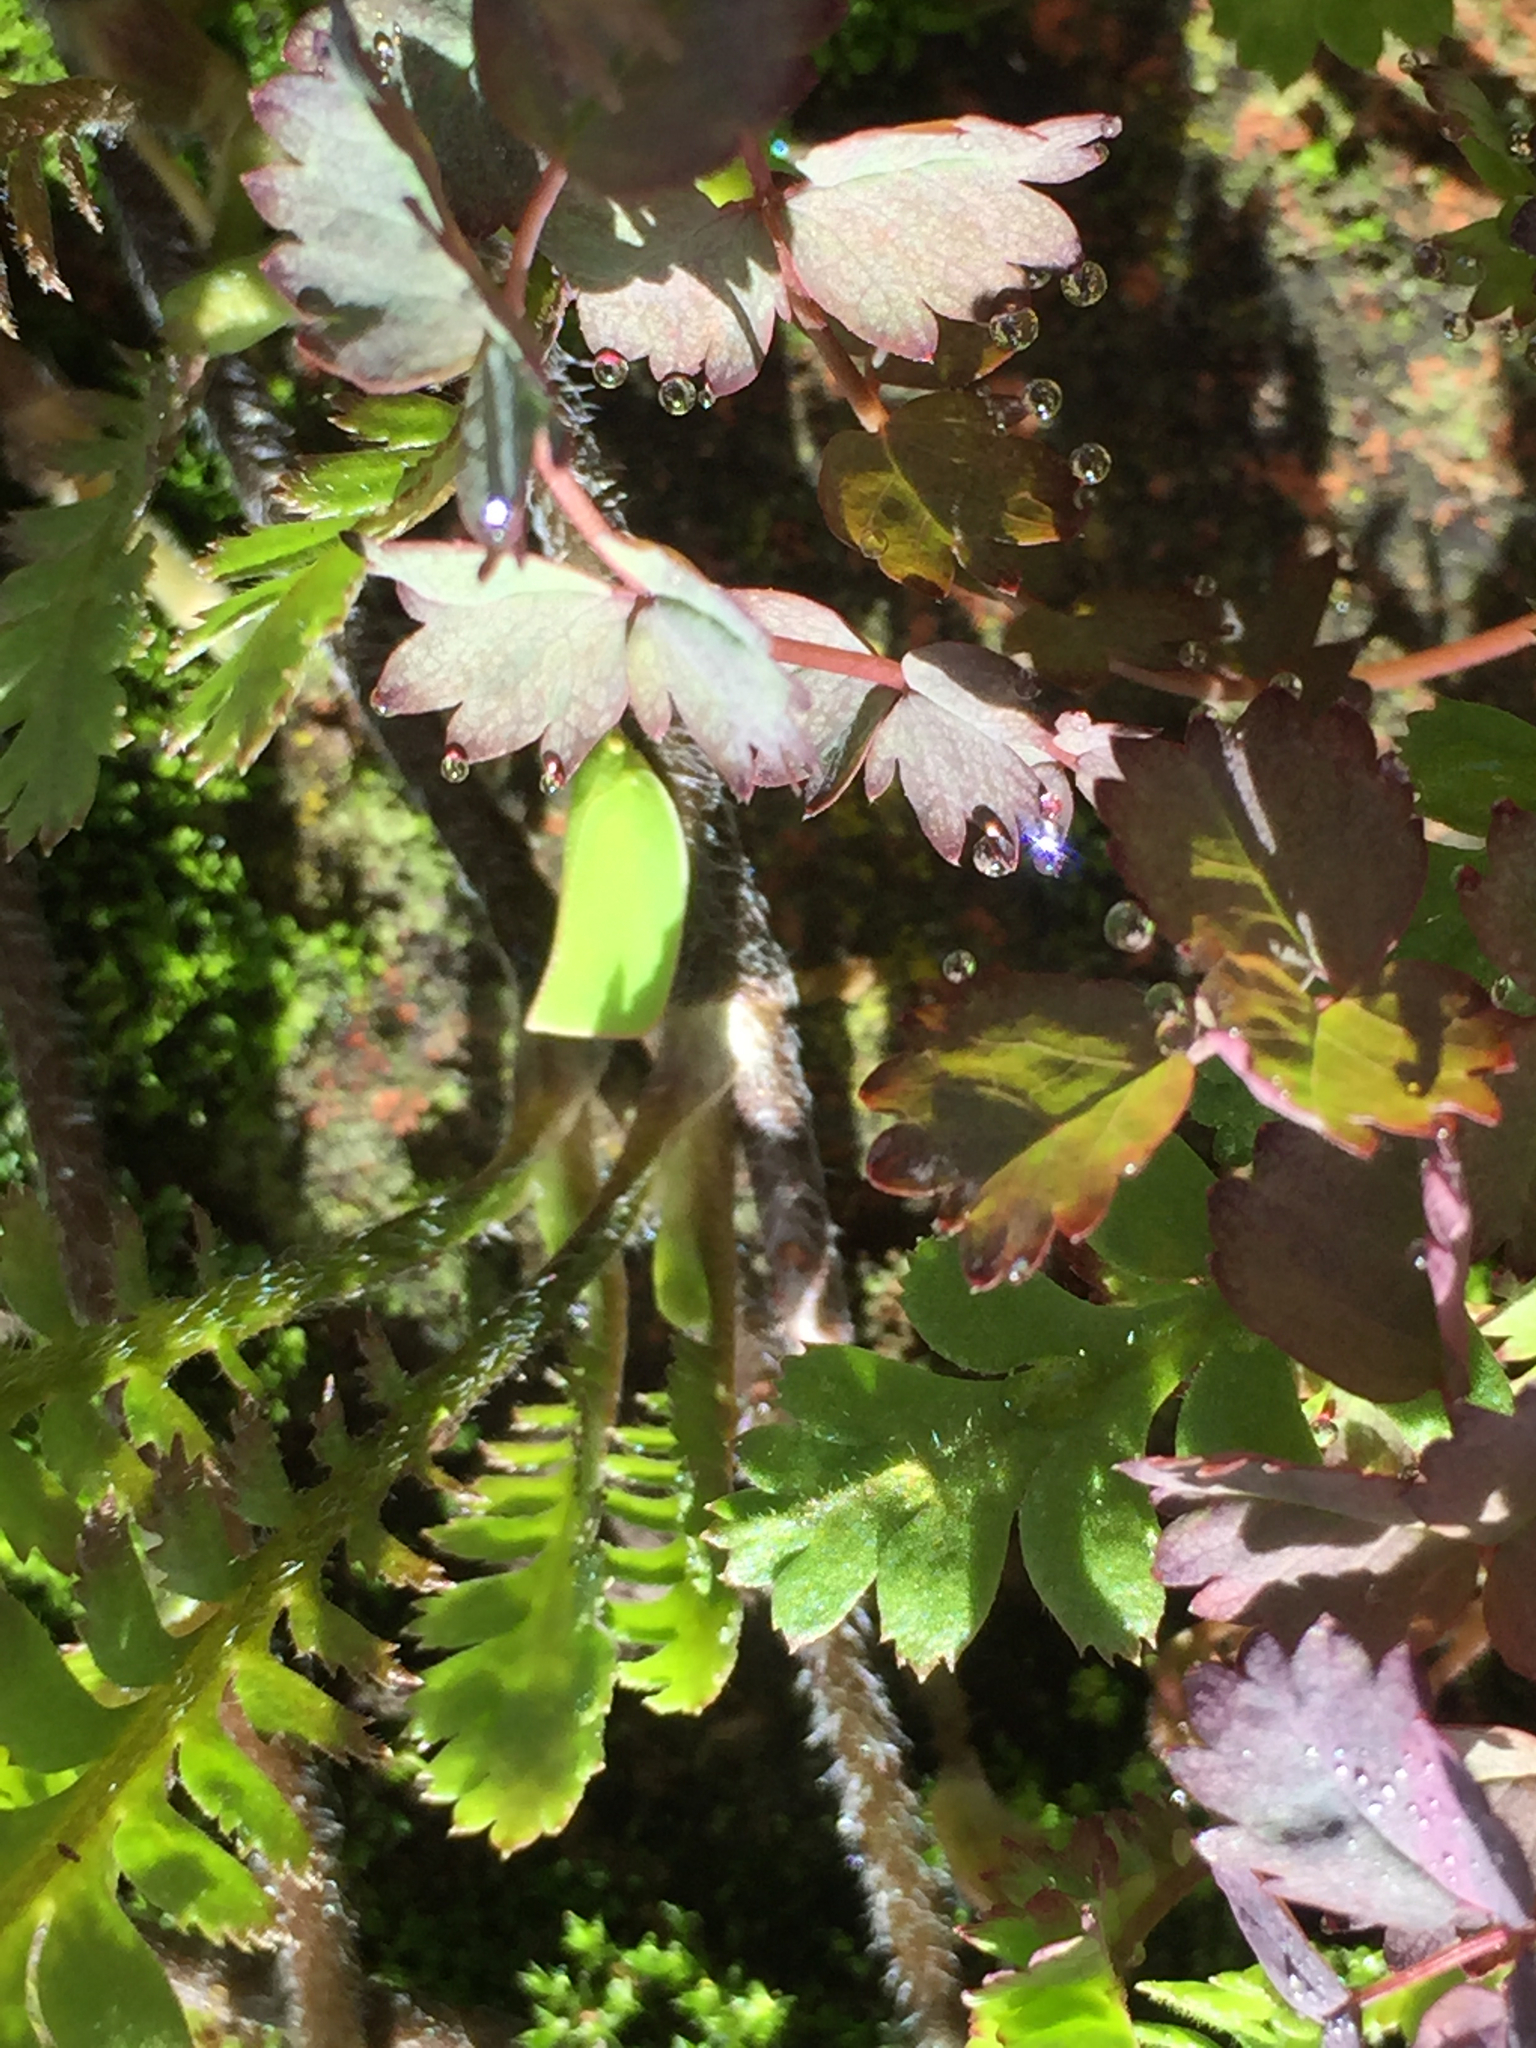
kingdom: Animalia
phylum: Arthropoda
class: Insecta
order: Hemiptera
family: Flatidae
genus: Siphanta
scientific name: Siphanta acuta
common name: Torpedo bug
